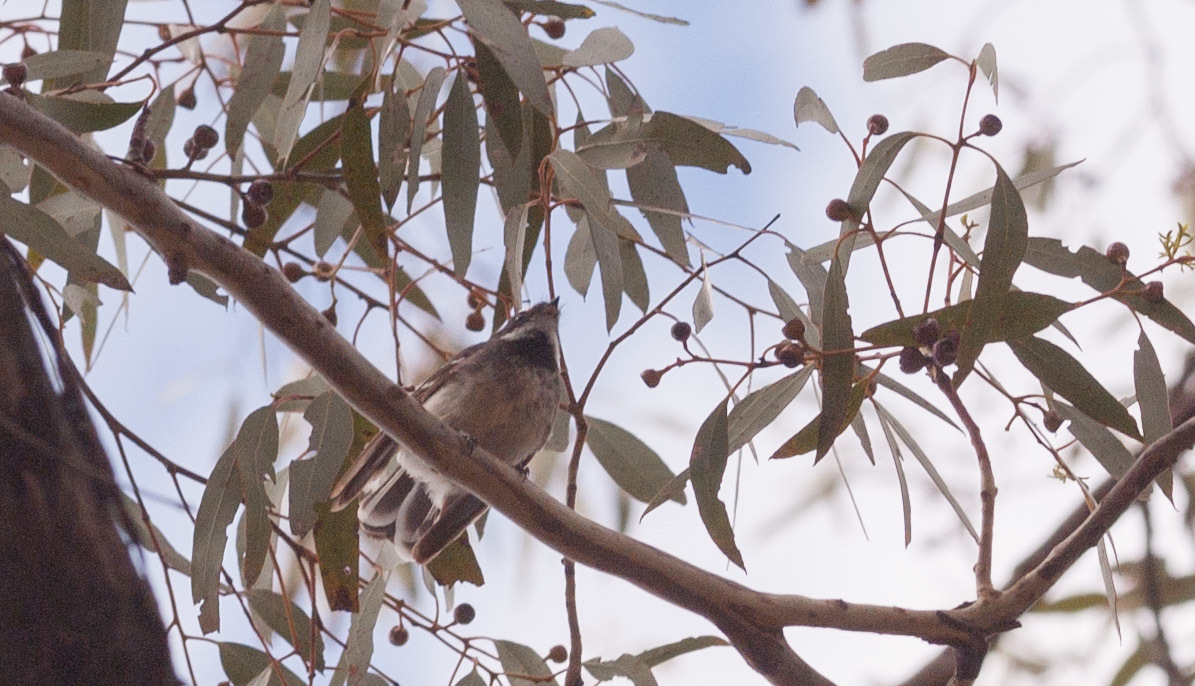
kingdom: Animalia
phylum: Chordata
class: Aves
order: Passeriformes
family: Rhipiduridae
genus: Rhipidura
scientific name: Rhipidura albiscapa
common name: Grey fantail
